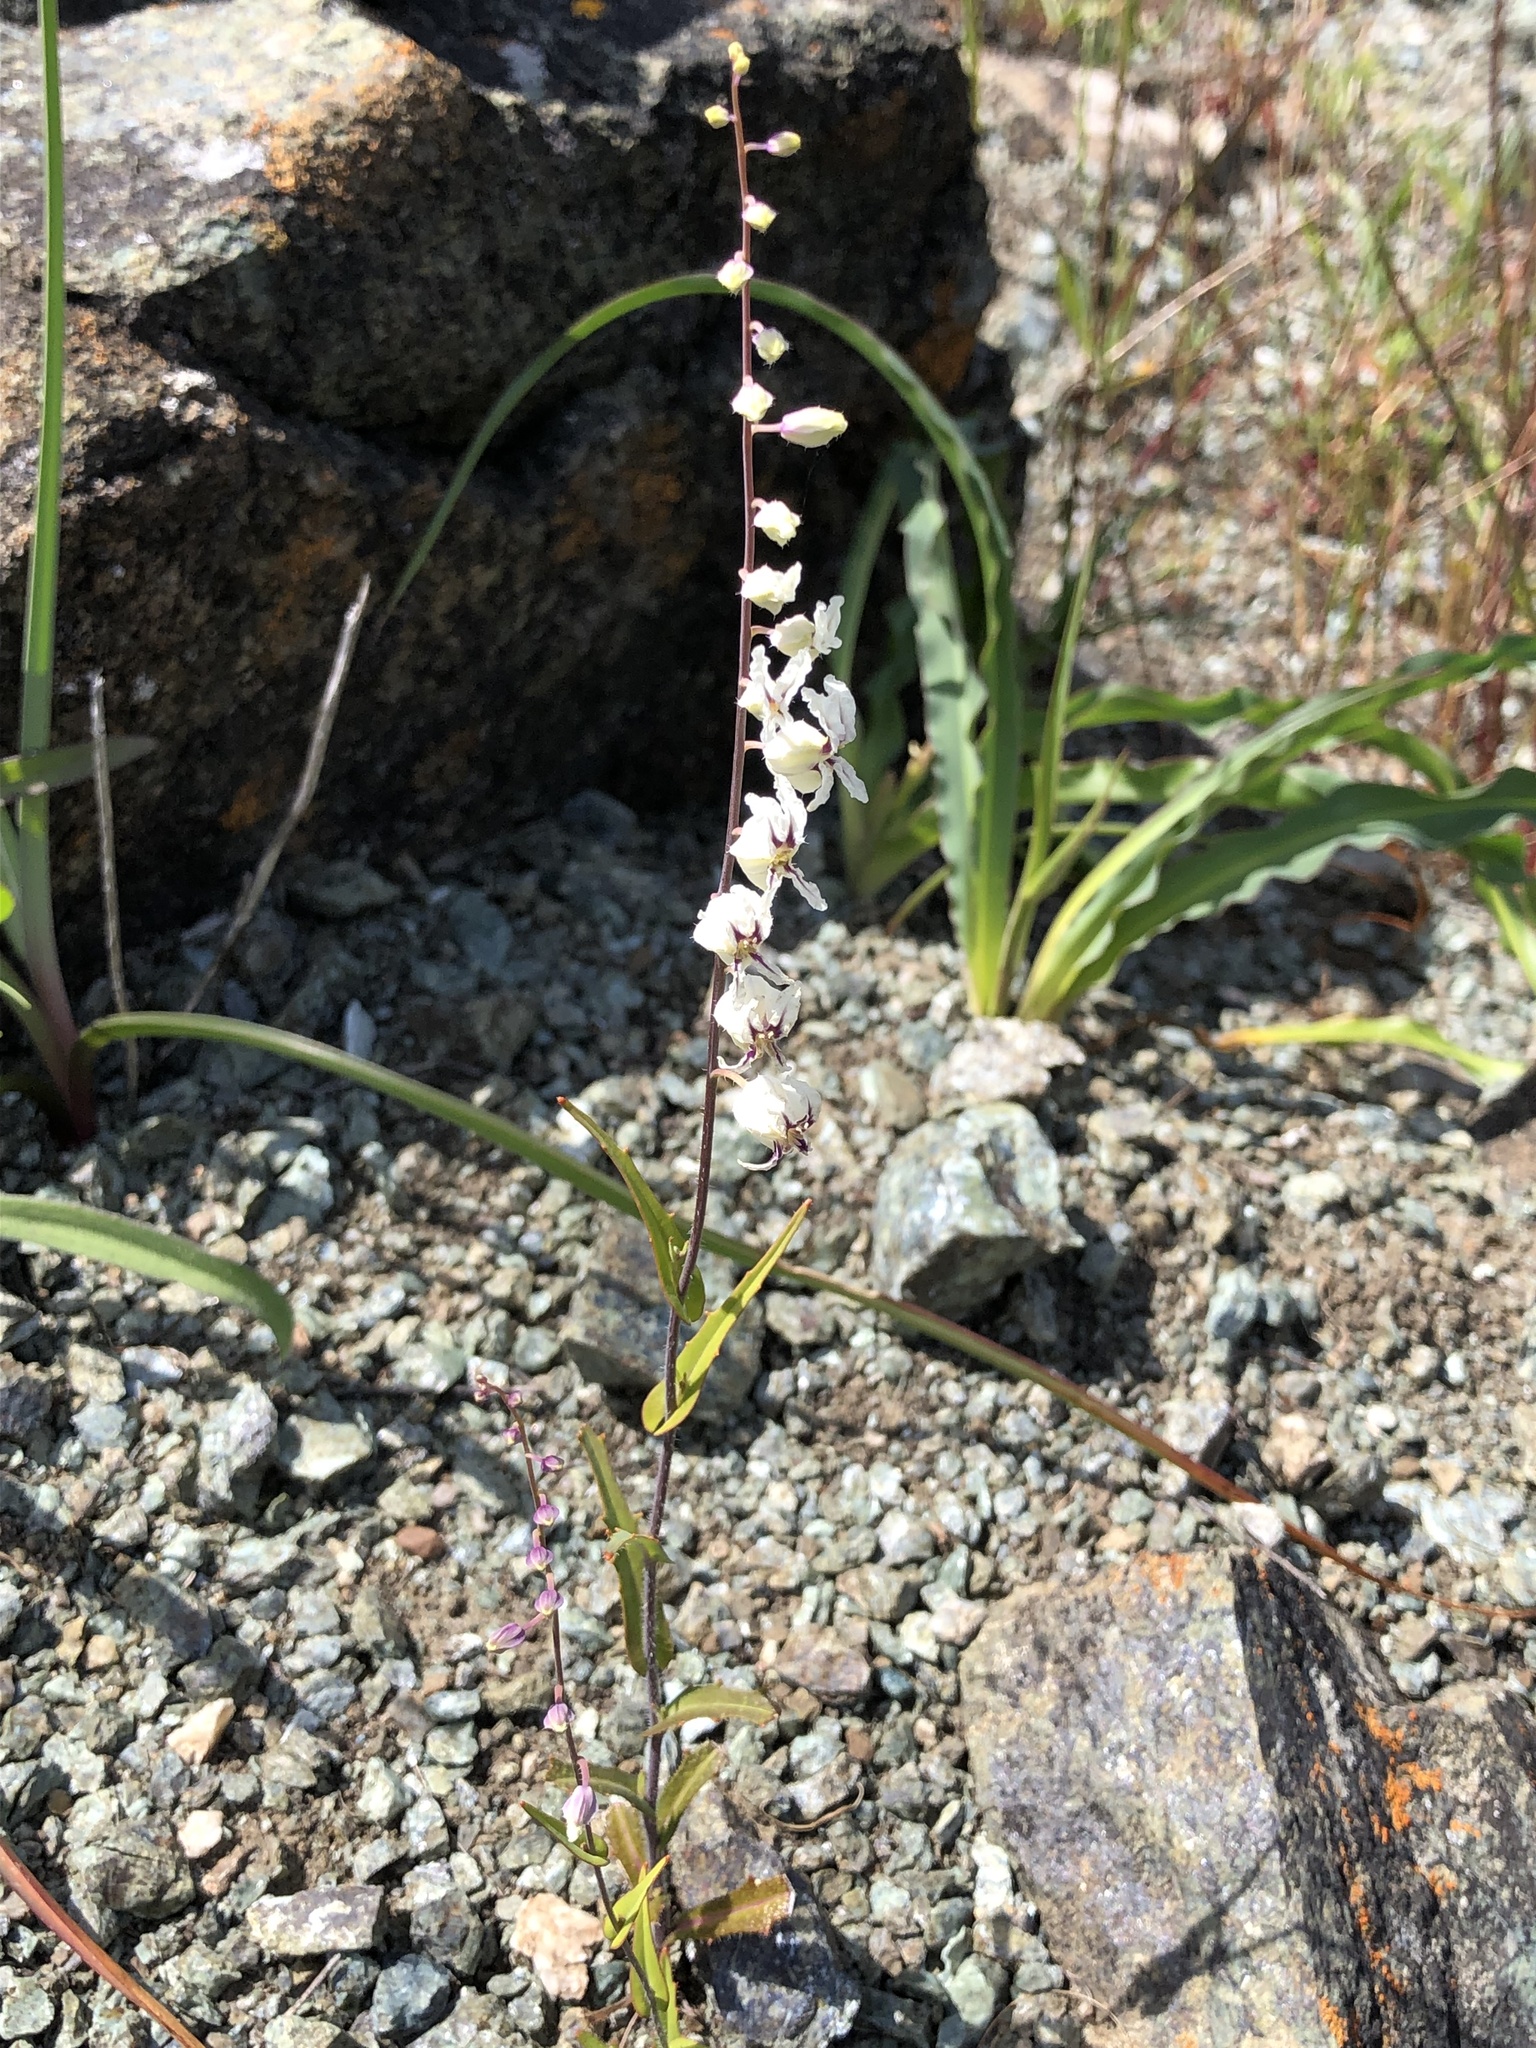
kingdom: Plantae
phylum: Tracheophyta
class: Magnoliopsida
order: Brassicales
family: Brassicaceae
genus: Streptanthus
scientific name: Streptanthus glandulosus
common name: Jewel-flower
